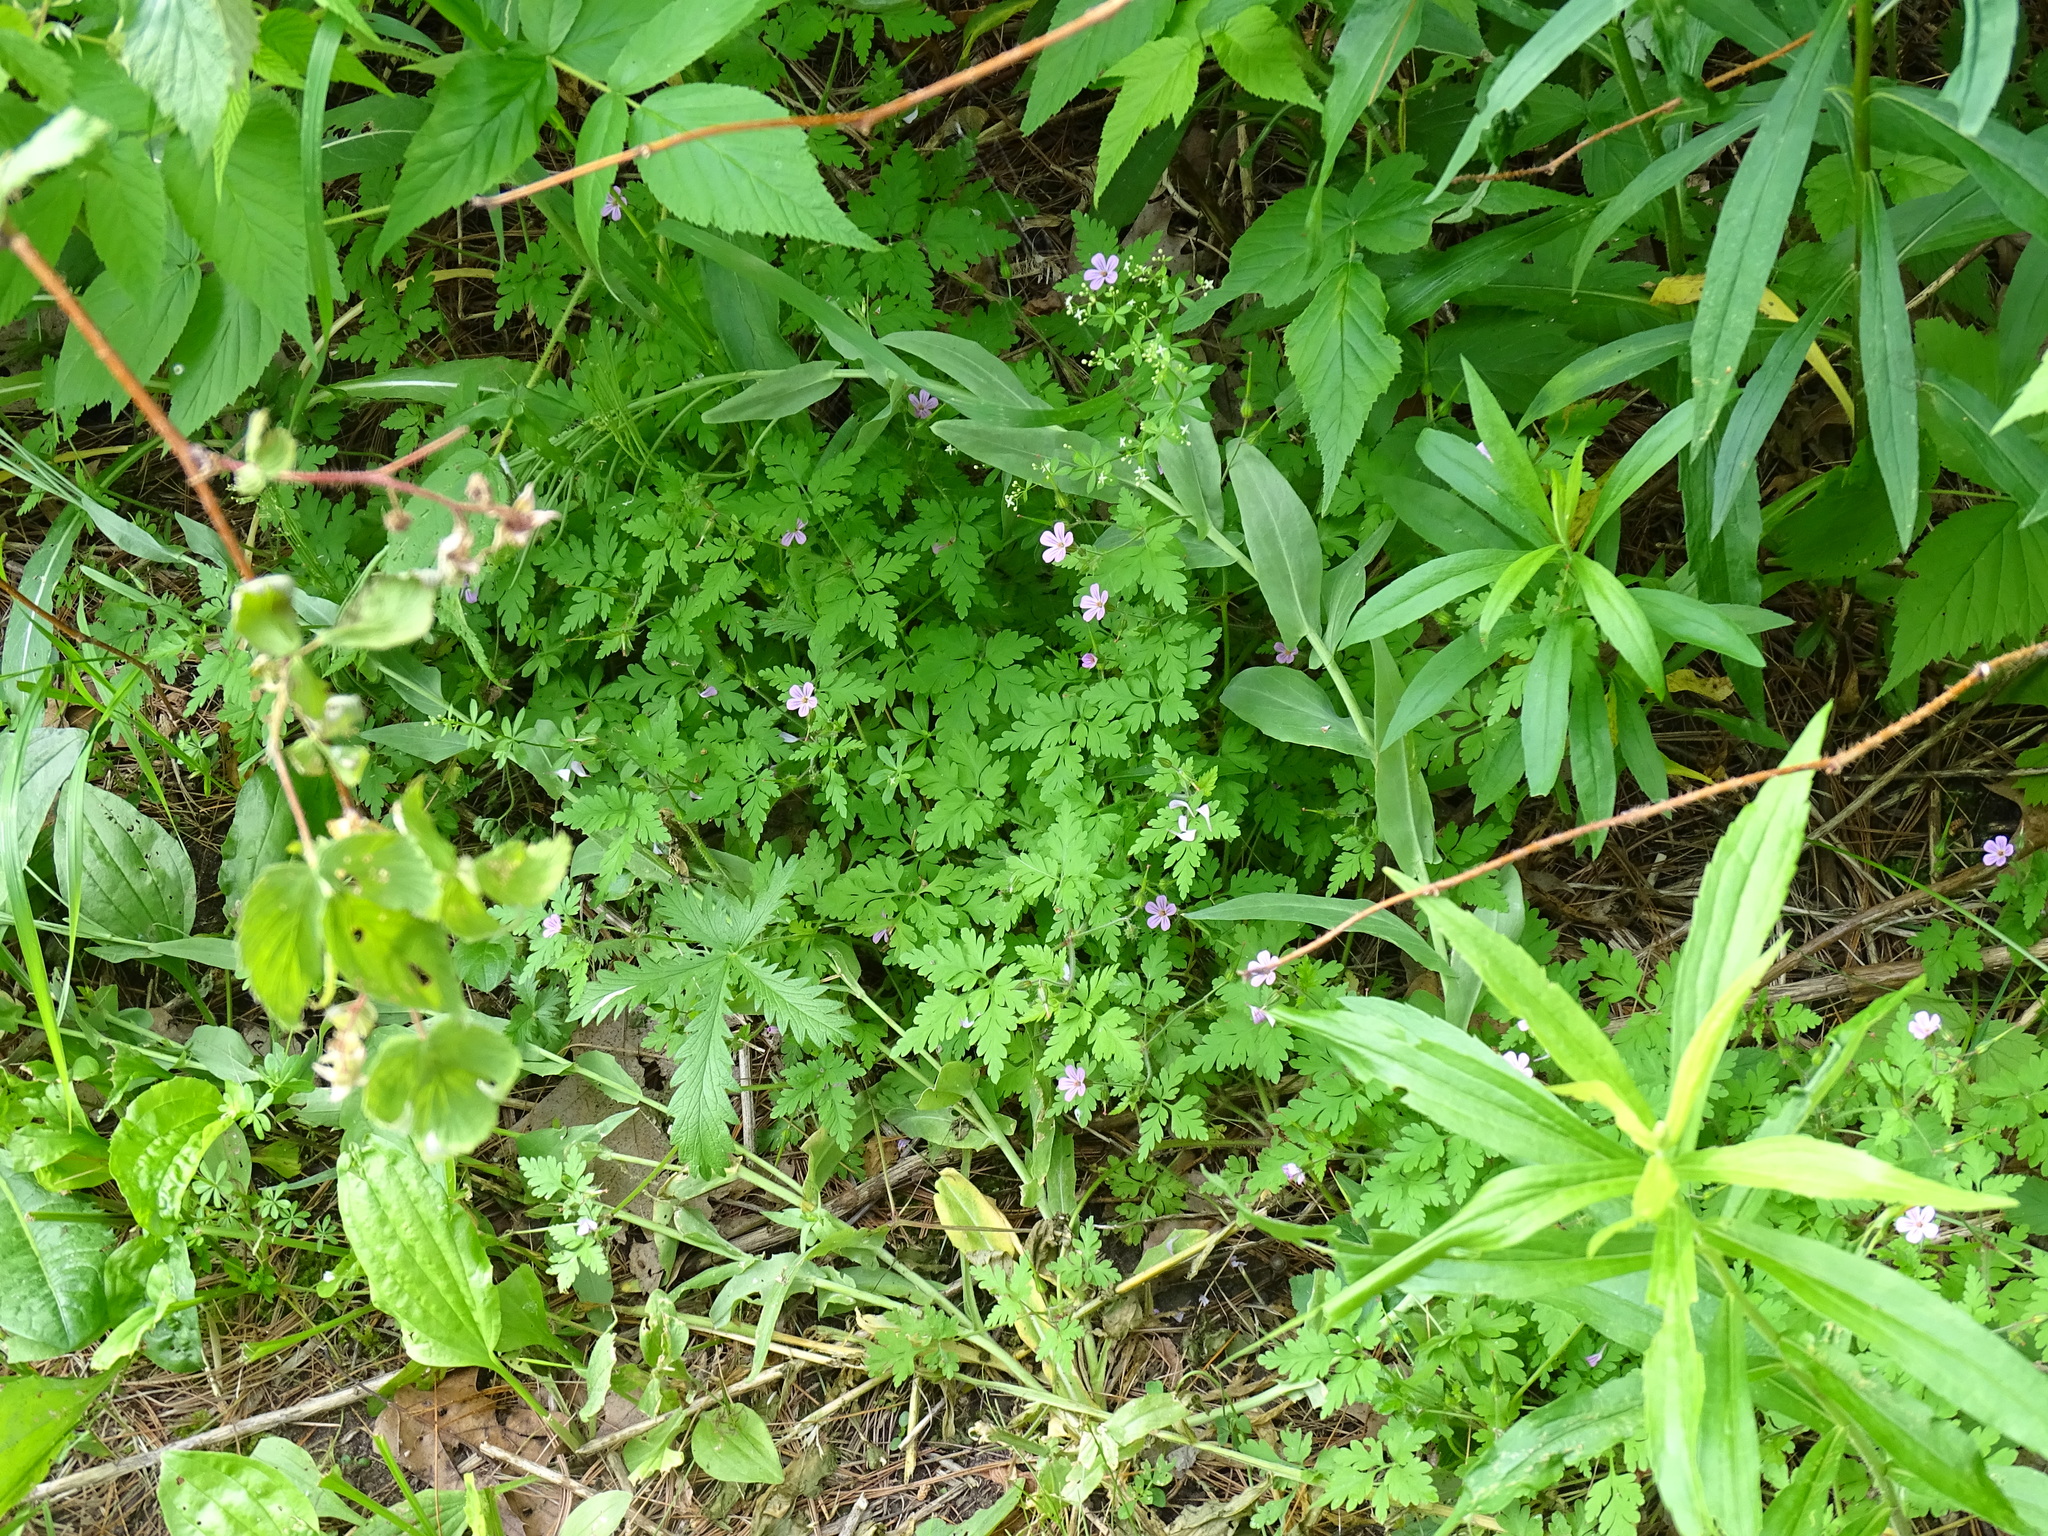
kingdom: Plantae
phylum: Tracheophyta
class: Magnoliopsida
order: Geraniales
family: Geraniaceae
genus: Geranium
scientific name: Geranium robertianum
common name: Herb-robert
